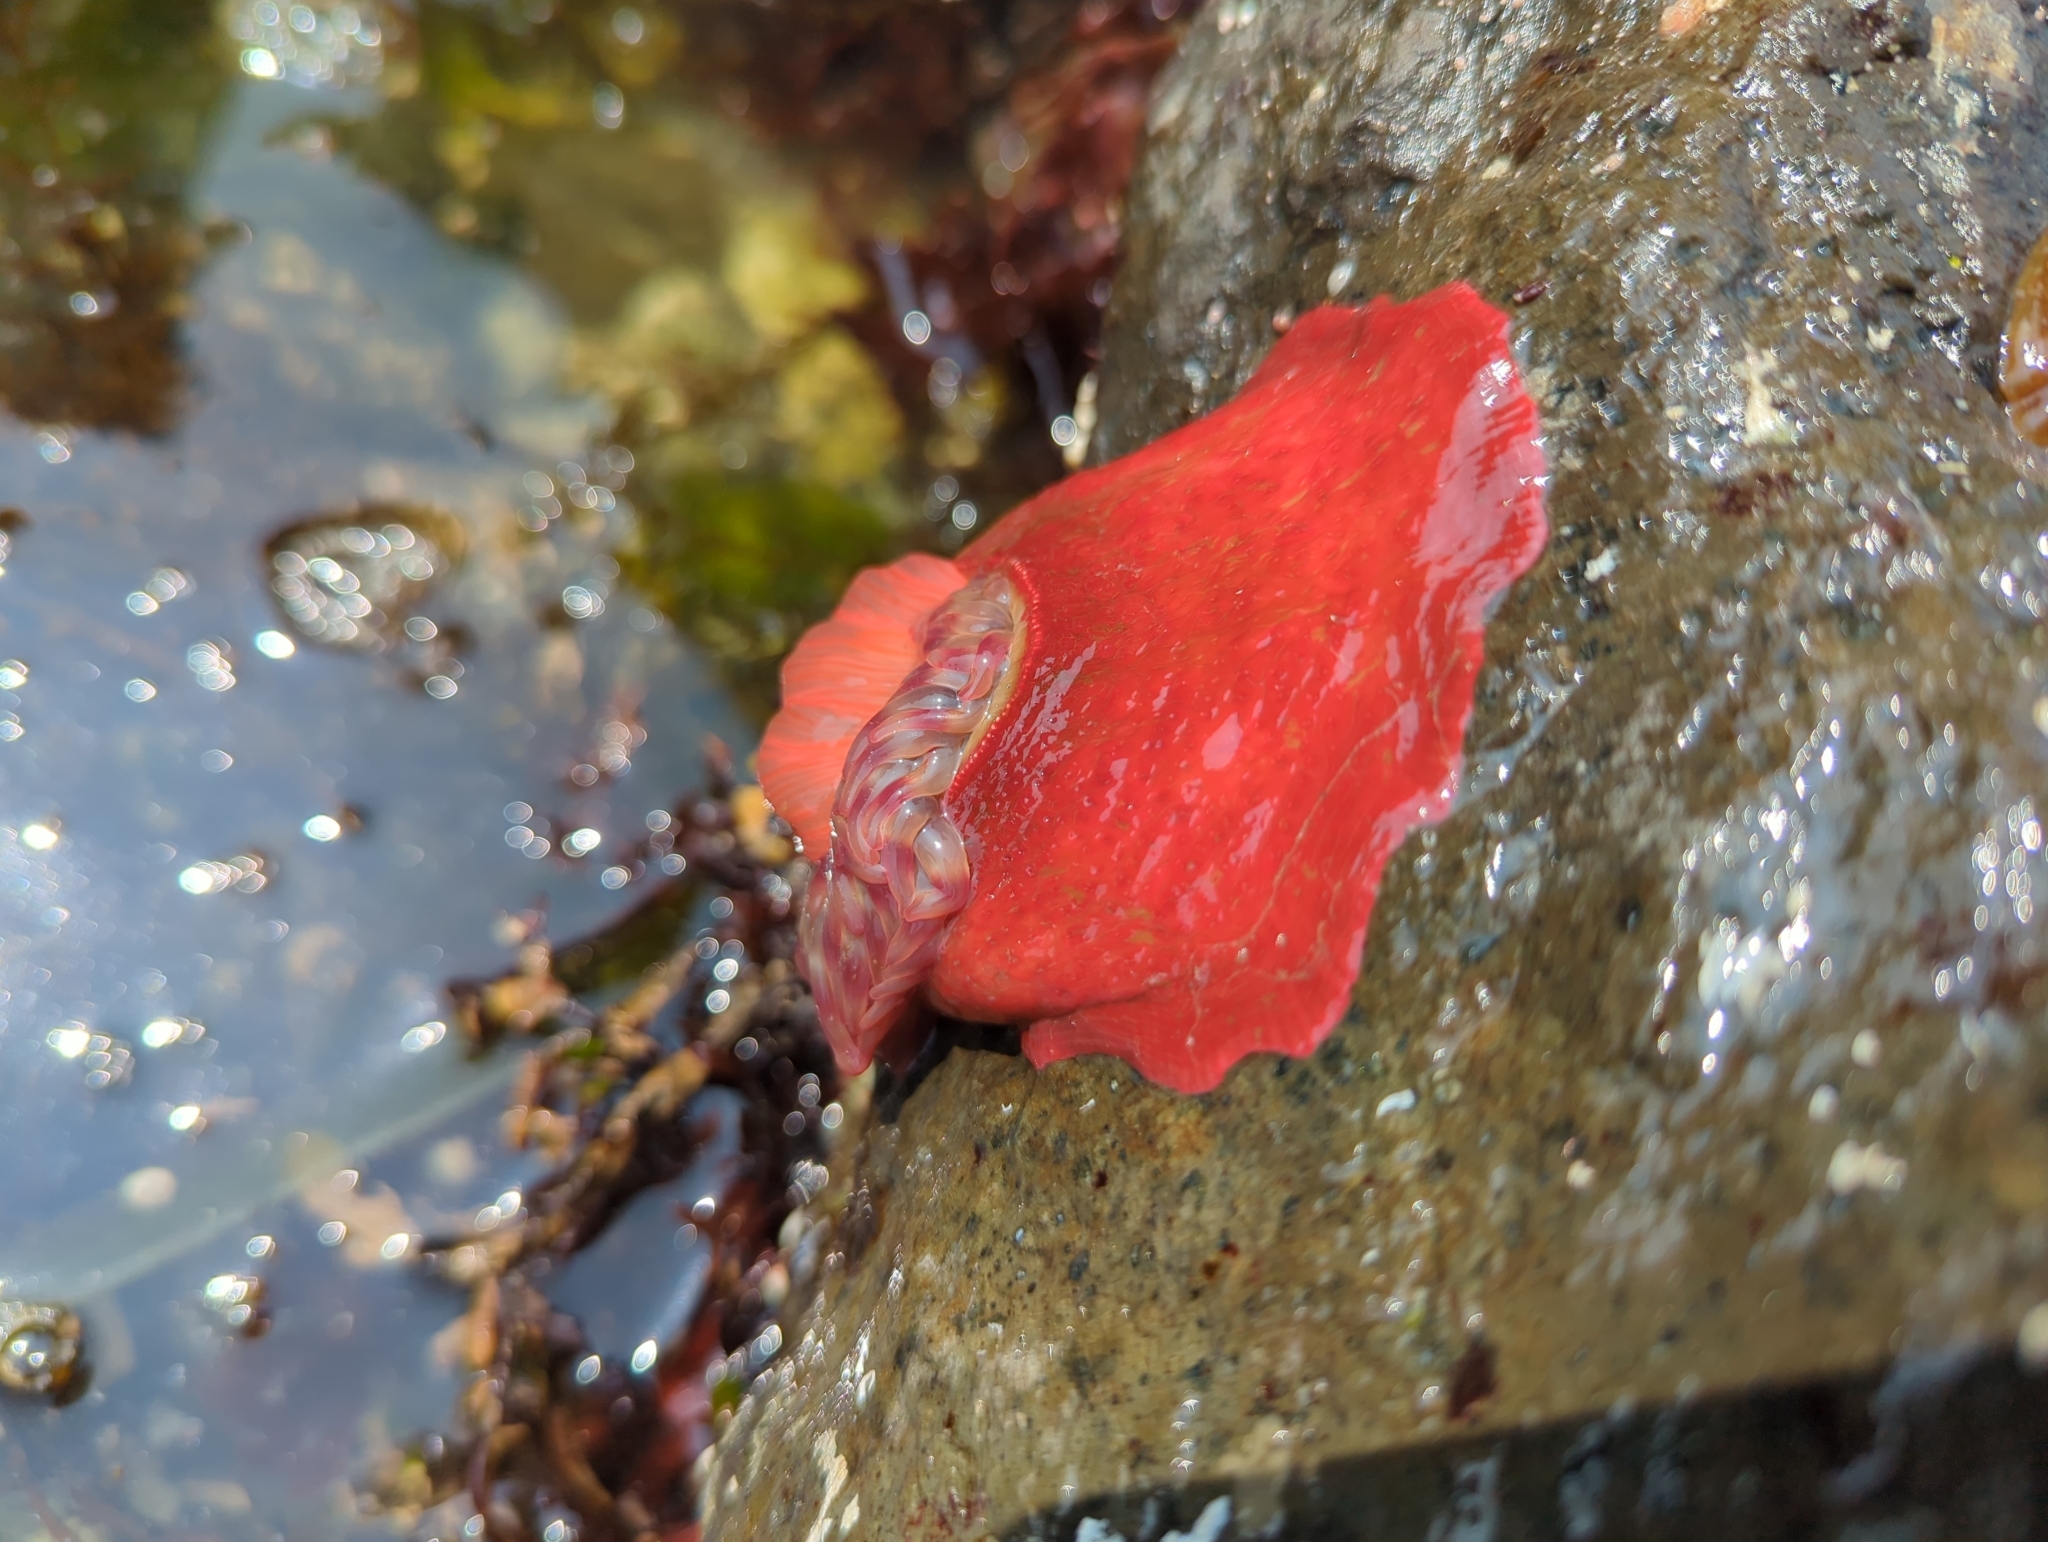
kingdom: Animalia
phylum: Cnidaria
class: Anthozoa
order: Actiniaria
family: Actiniidae
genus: Urticina
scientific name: Urticina grebelnyi
